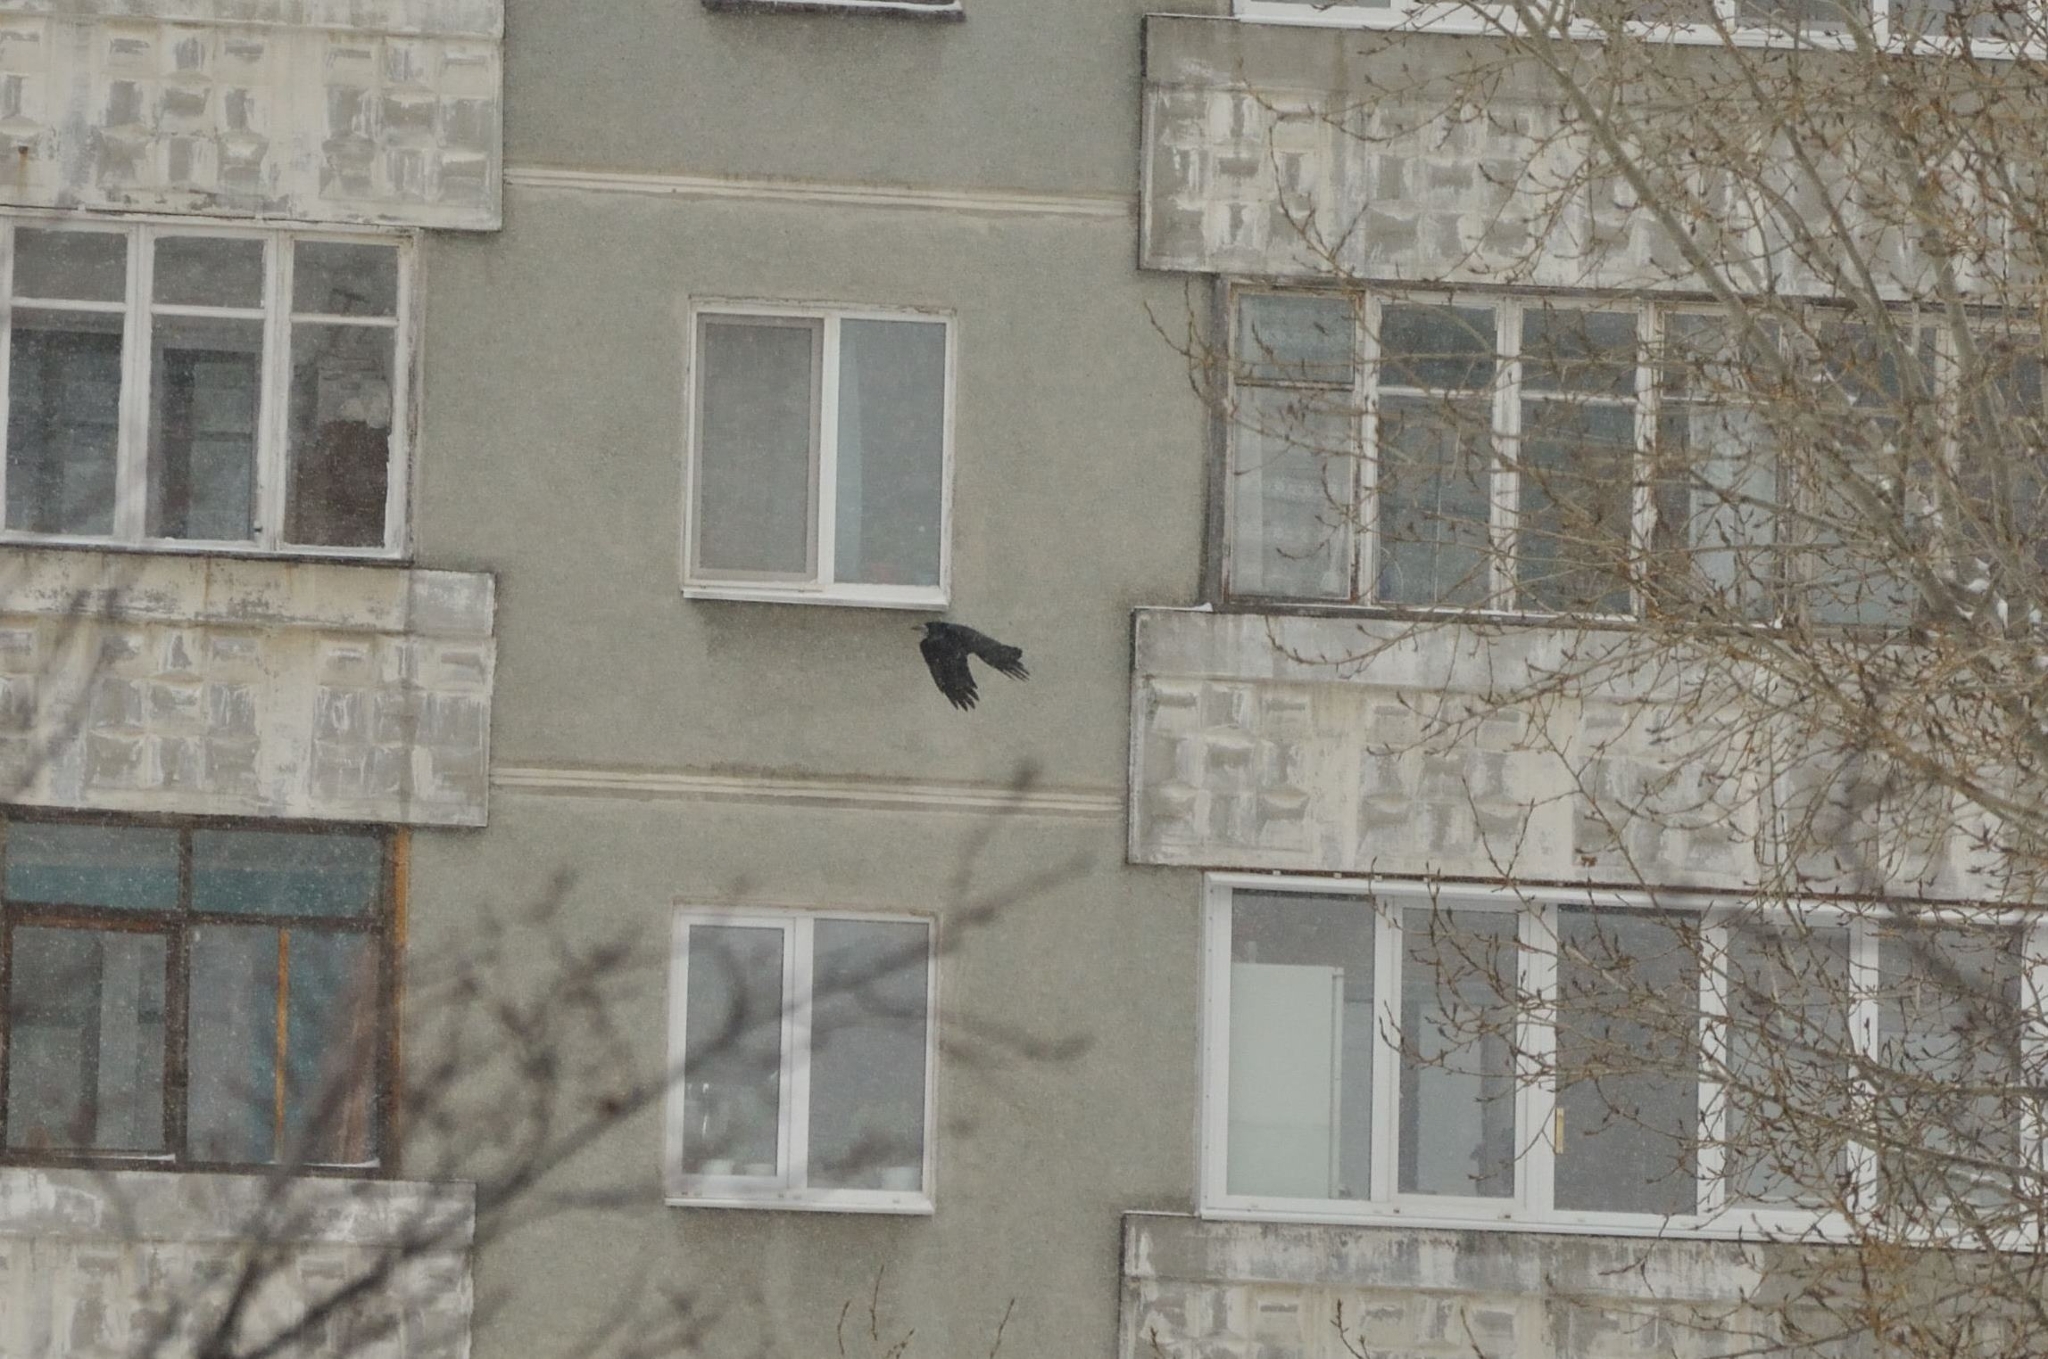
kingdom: Animalia
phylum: Chordata
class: Aves
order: Passeriformes
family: Corvidae
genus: Corvus
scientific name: Corvus frugilegus
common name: Rook
